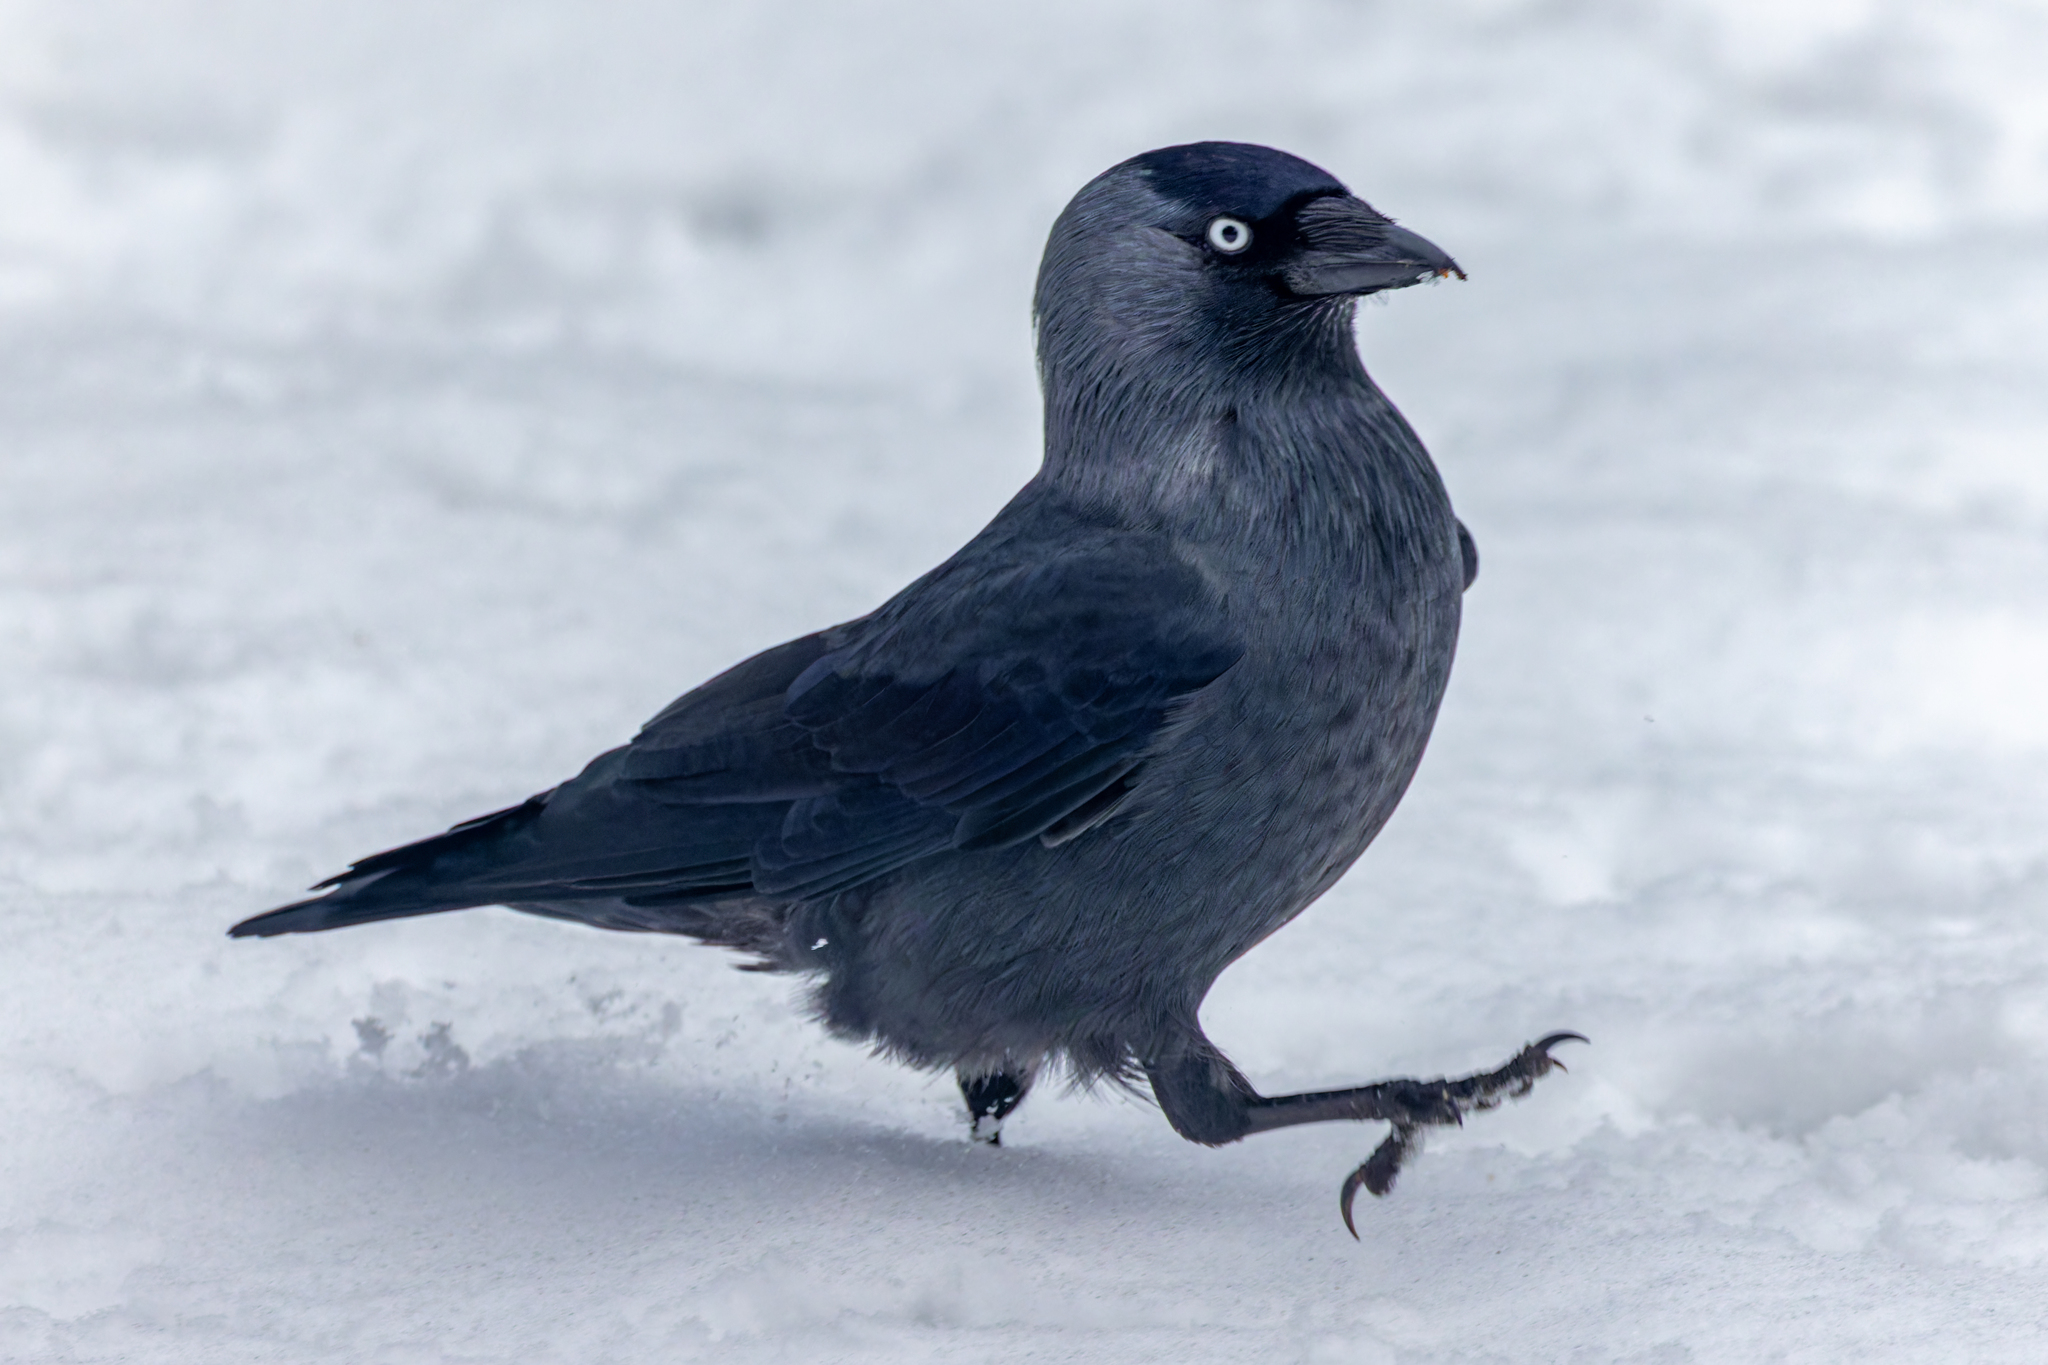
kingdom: Animalia
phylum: Chordata
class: Aves
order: Passeriformes
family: Corvidae
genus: Coloeus
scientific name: Coloeus monedula
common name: Western jackdaw
